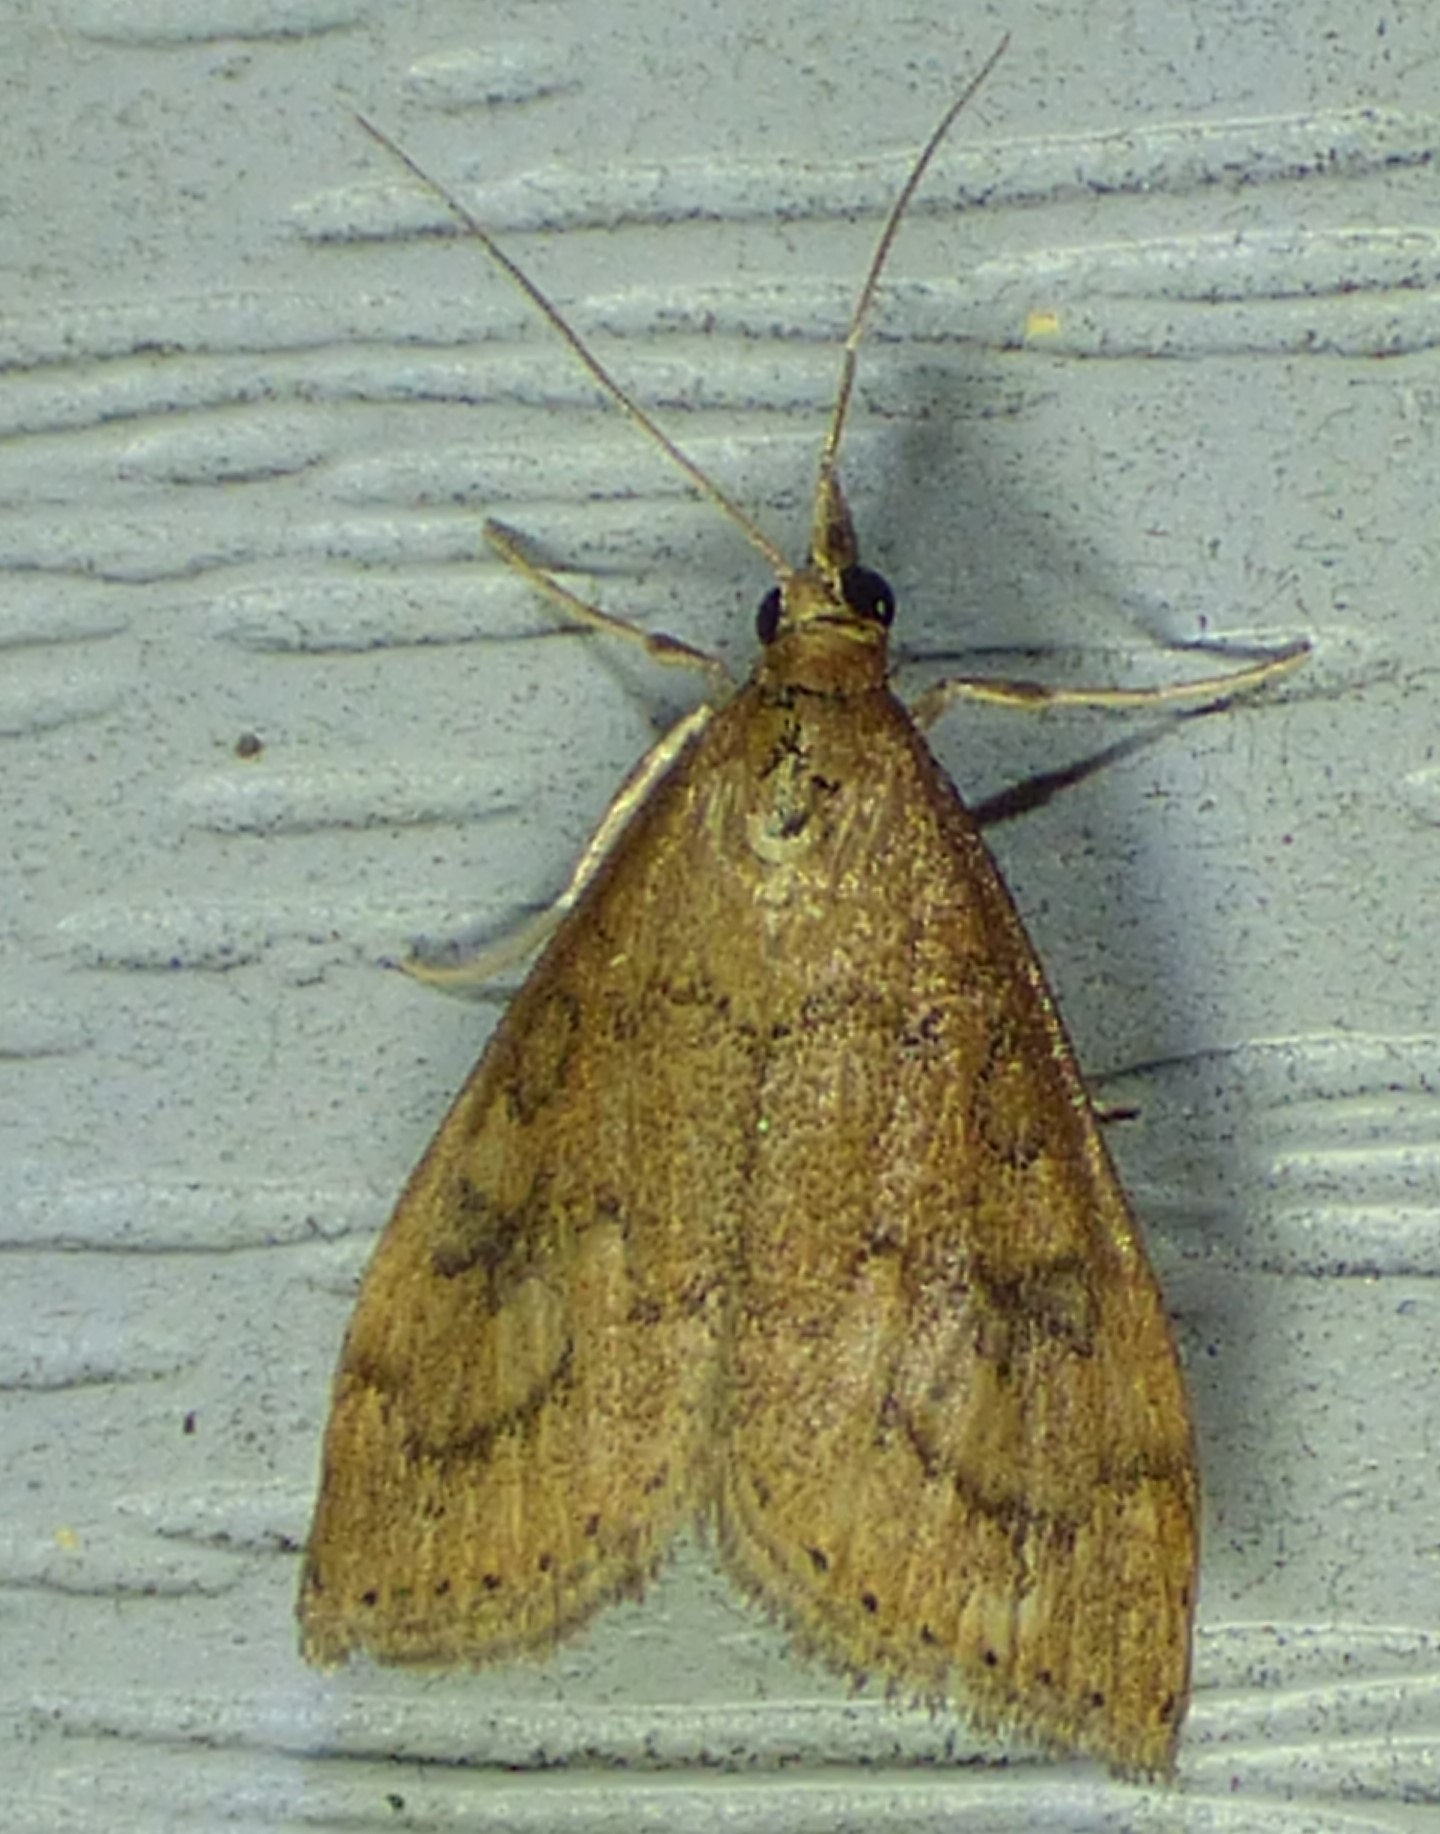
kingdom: Animalia
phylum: Arthropoda
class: Insecta
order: Lepidoptera
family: Crambidae
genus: Udea
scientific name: Udea rubigalis
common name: Celery leaftier moth
